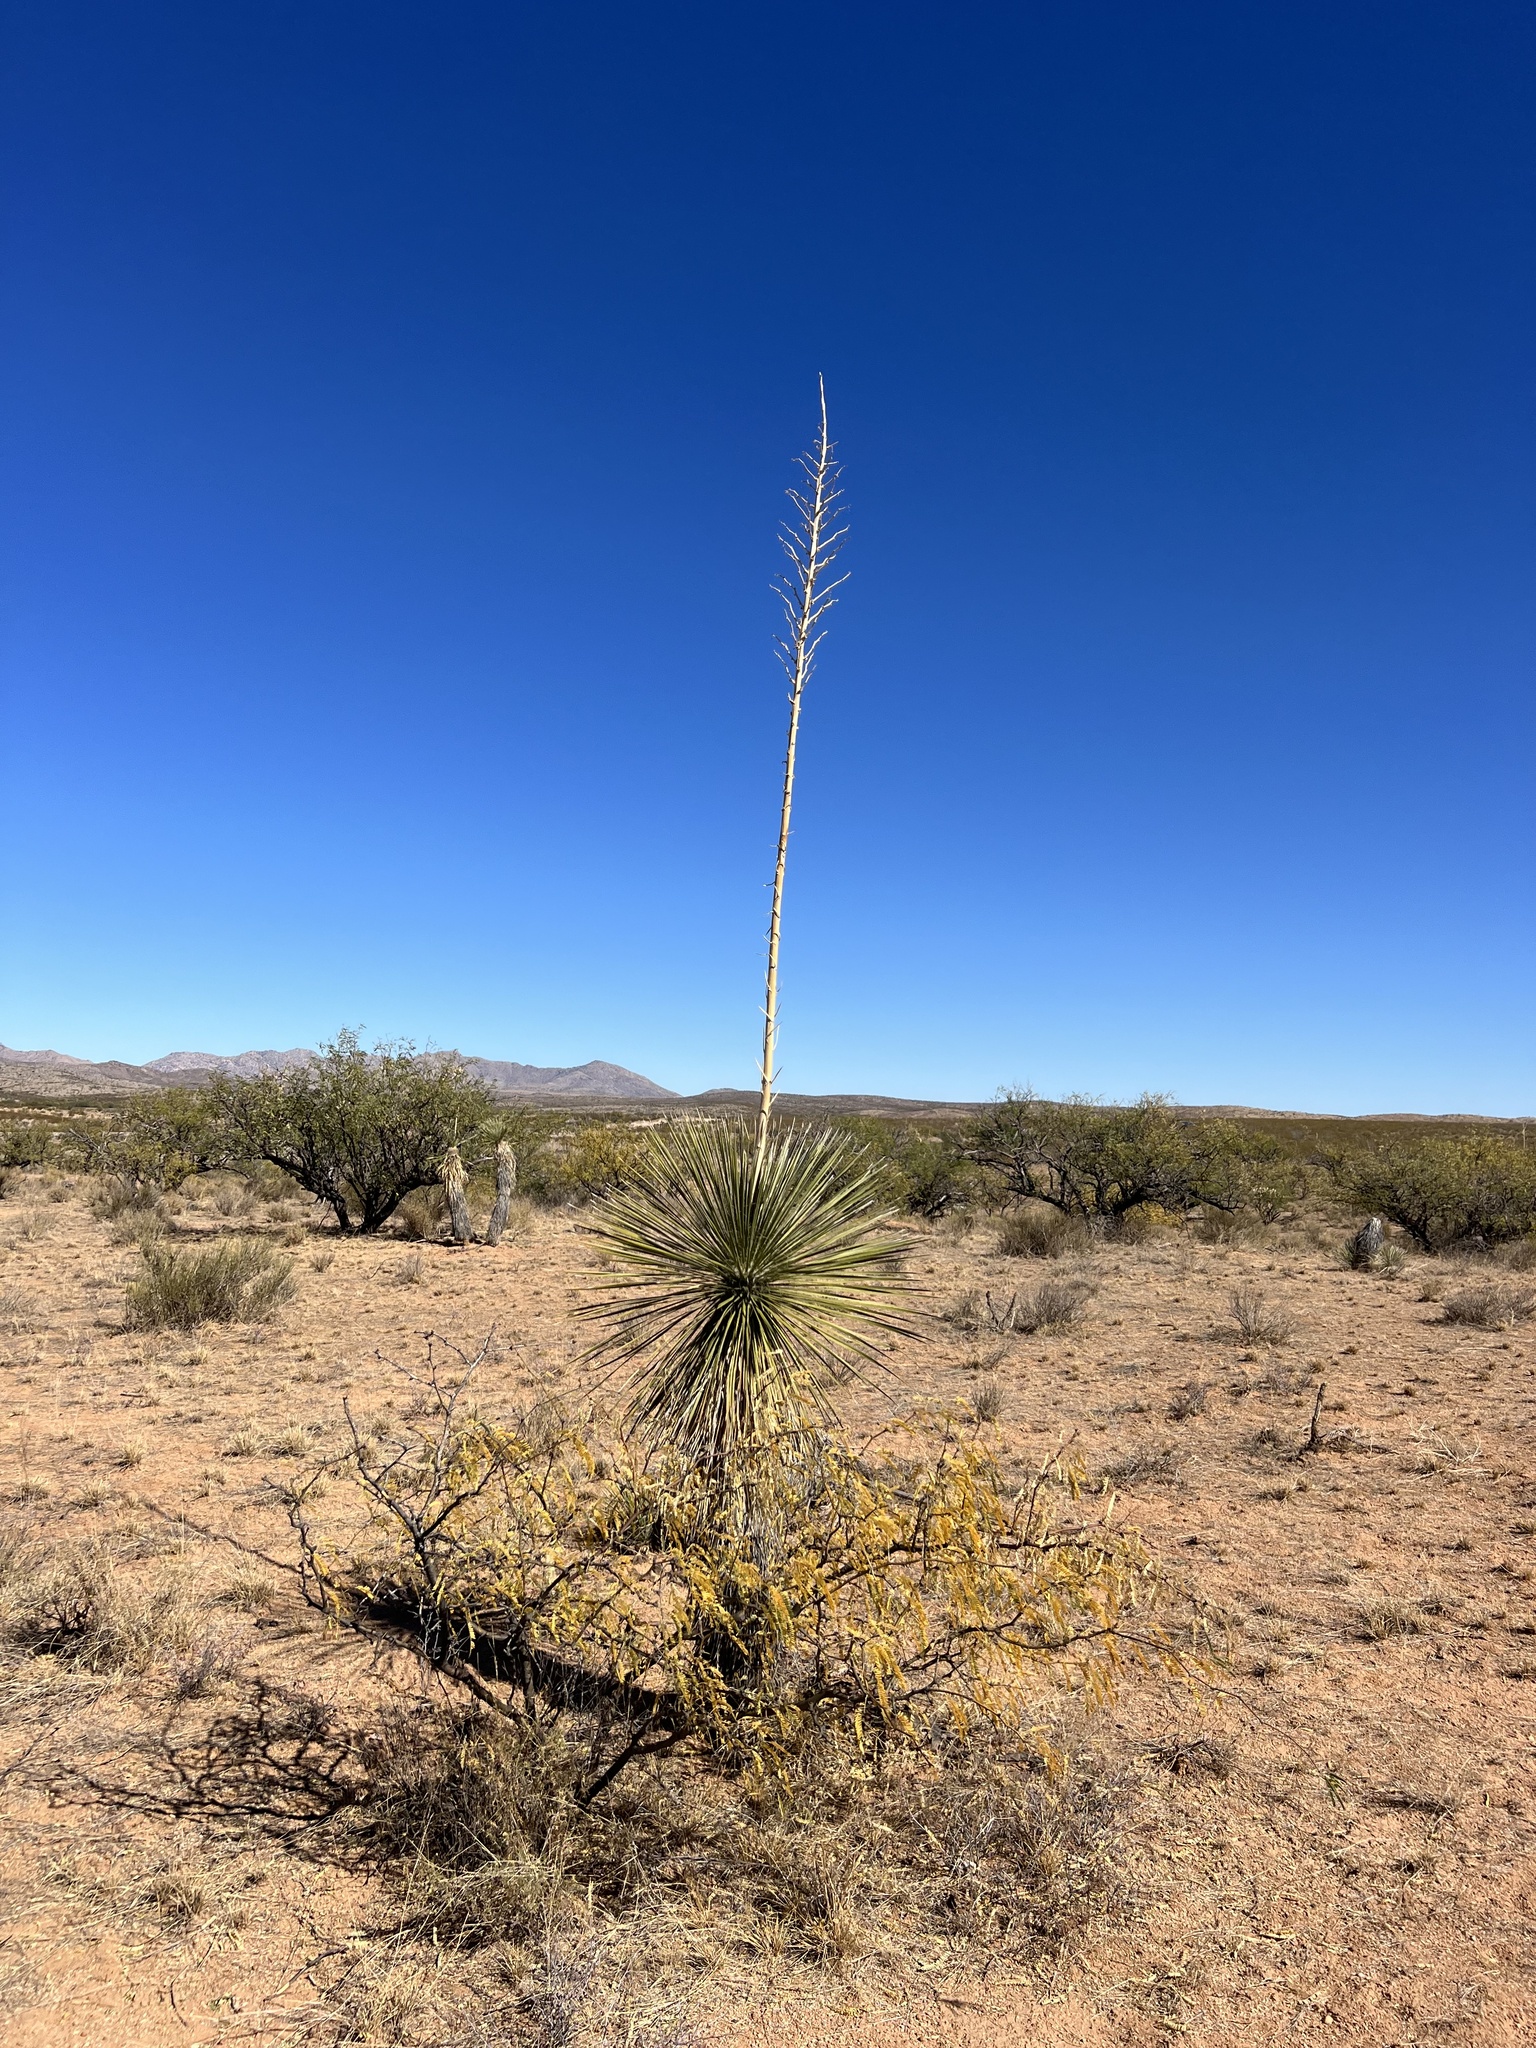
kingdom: Plantae
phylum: Tracheophyta
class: Liliopsida
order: Asparagales
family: Asparagaceae
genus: Yucca
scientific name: Yucca elata
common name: Palmella
